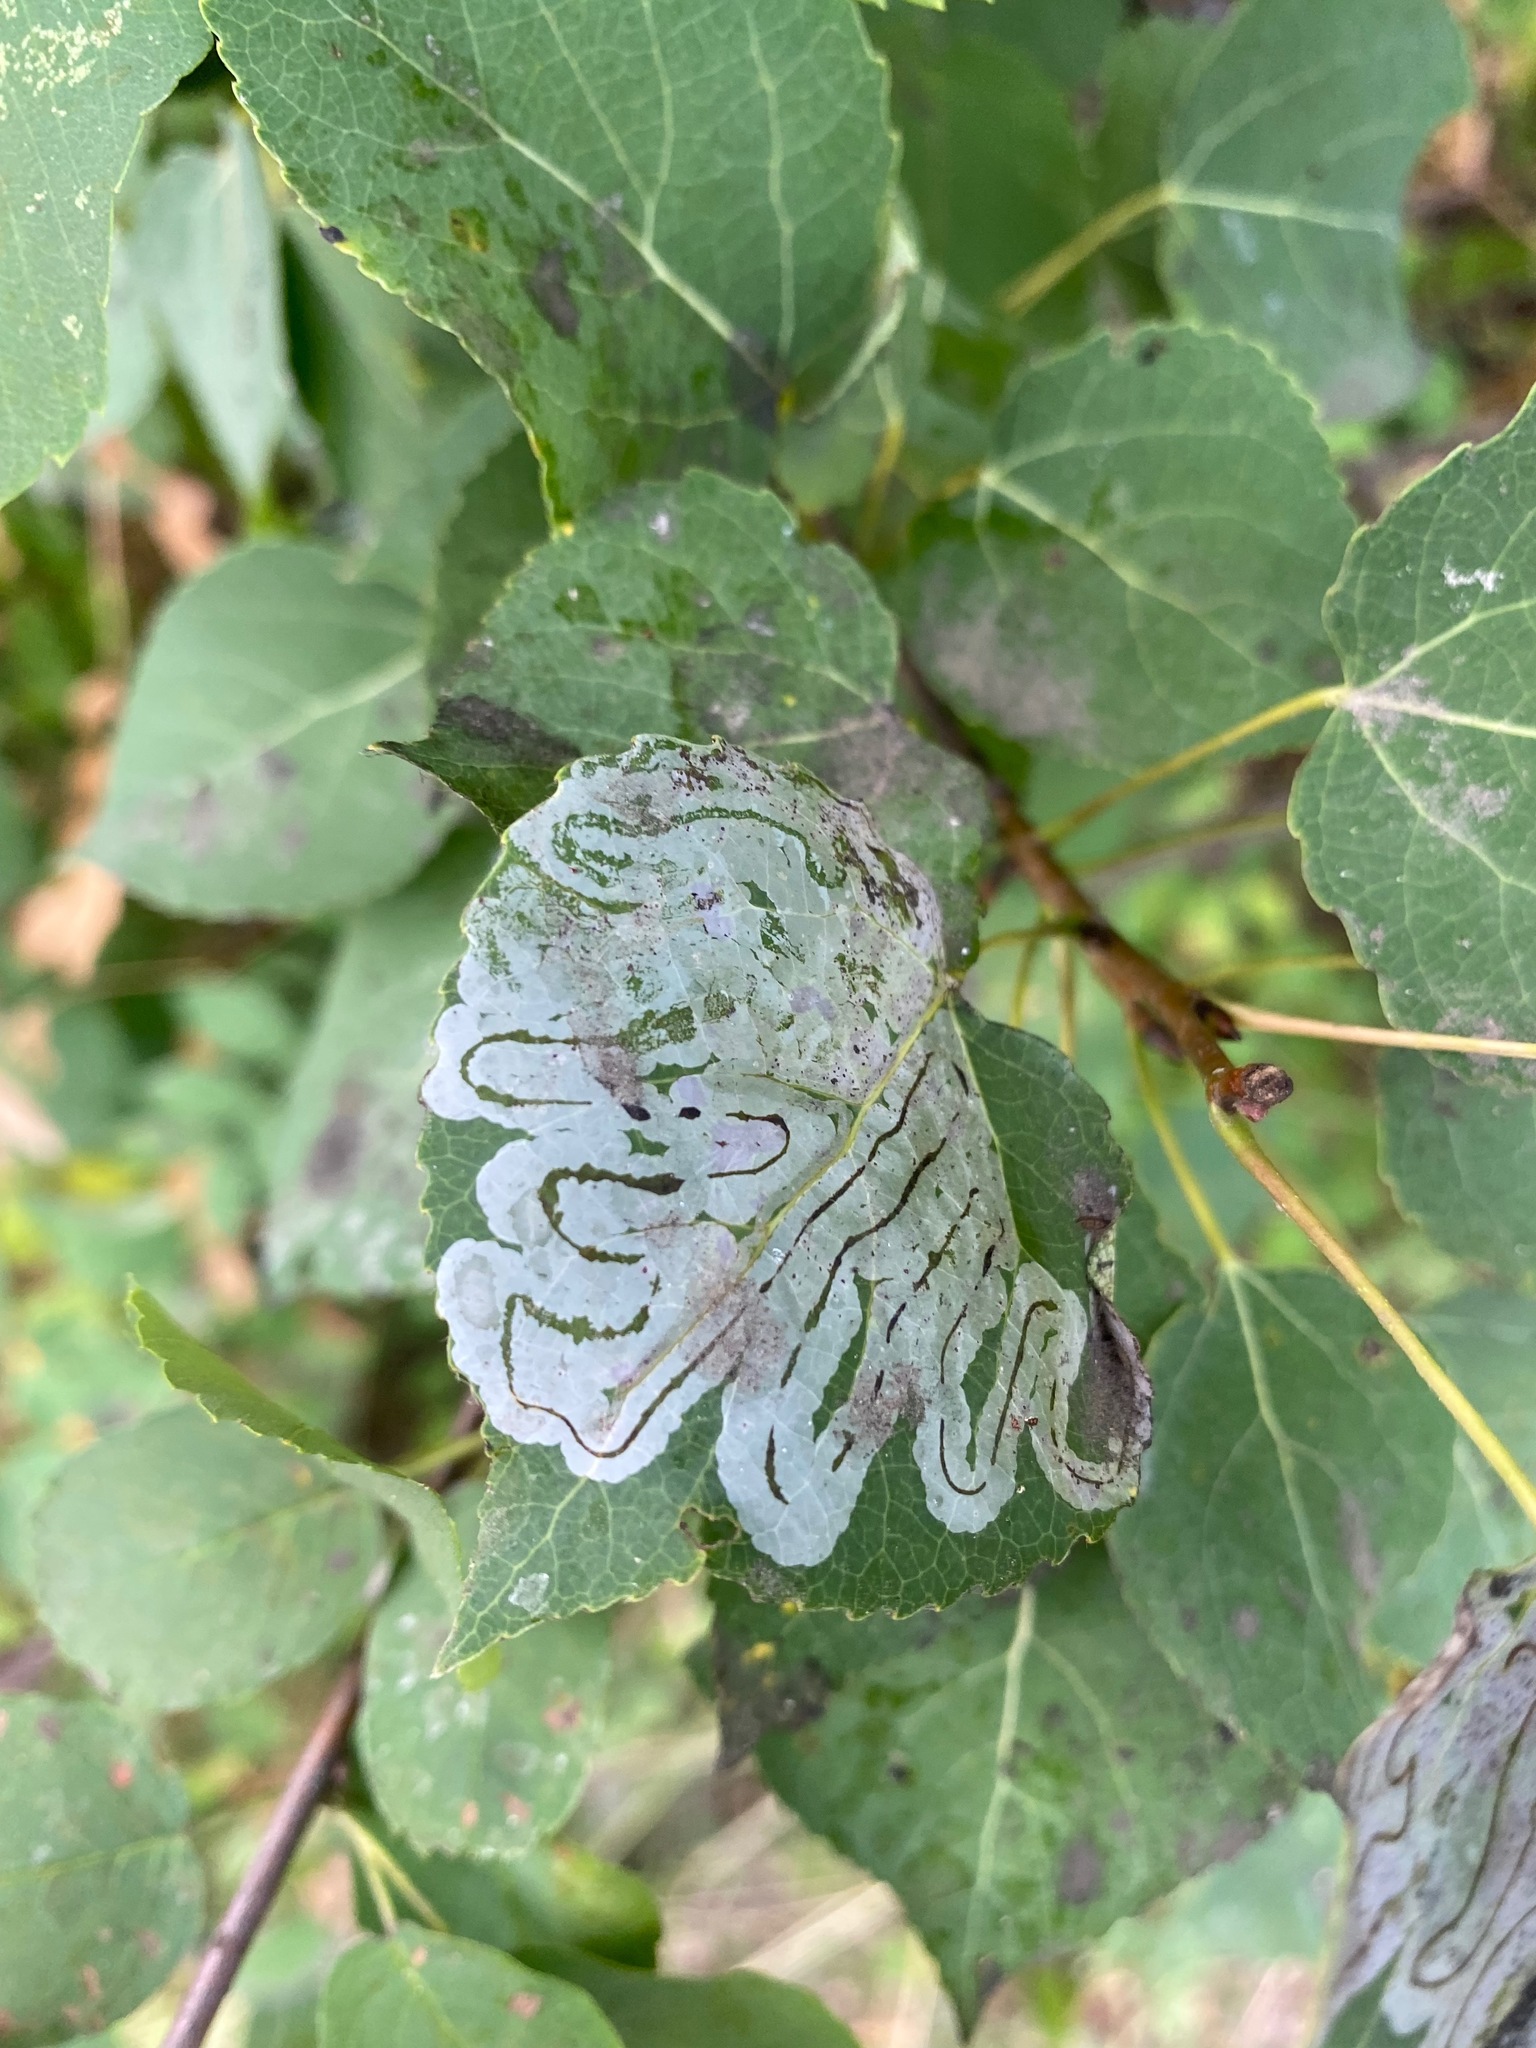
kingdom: Animalia
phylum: Arthropoda
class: Insecta
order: Lepidoptera
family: Gracillariidae
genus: Phyllocnistis
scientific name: Phyllocnistis populiella
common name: Aspen serpentine leafminer moth
